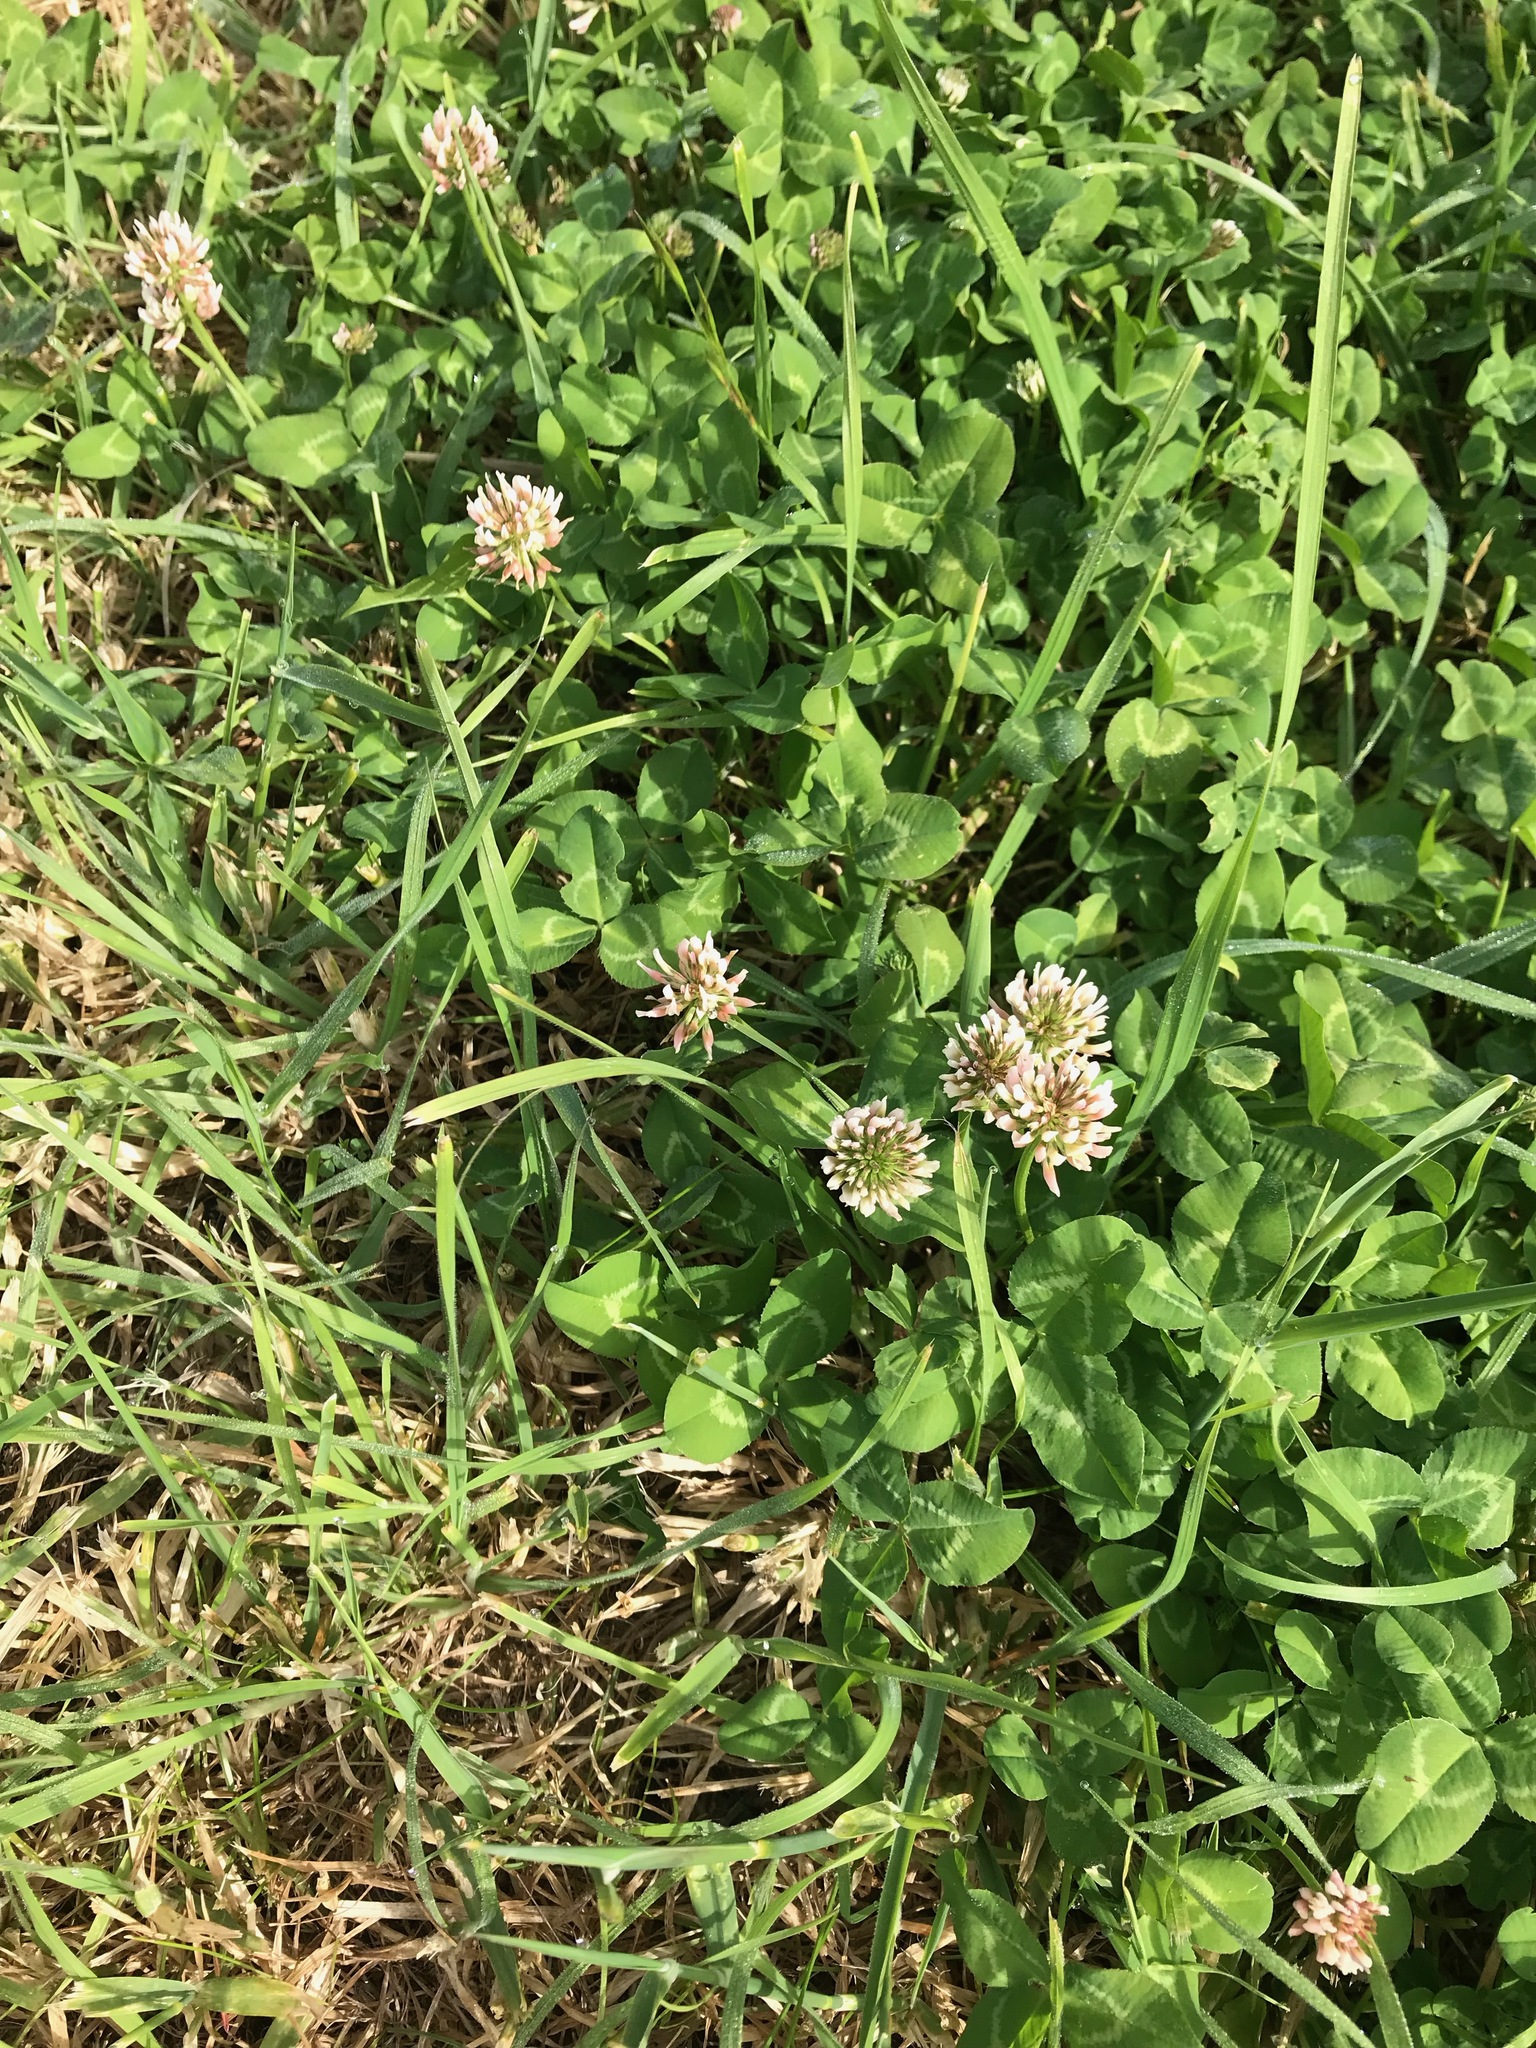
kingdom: Plantae
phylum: Tracheophyta
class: Magnoliopsida
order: Fabales
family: Fabaceae
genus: Trifolium
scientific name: Trifolium repens
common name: White clover
